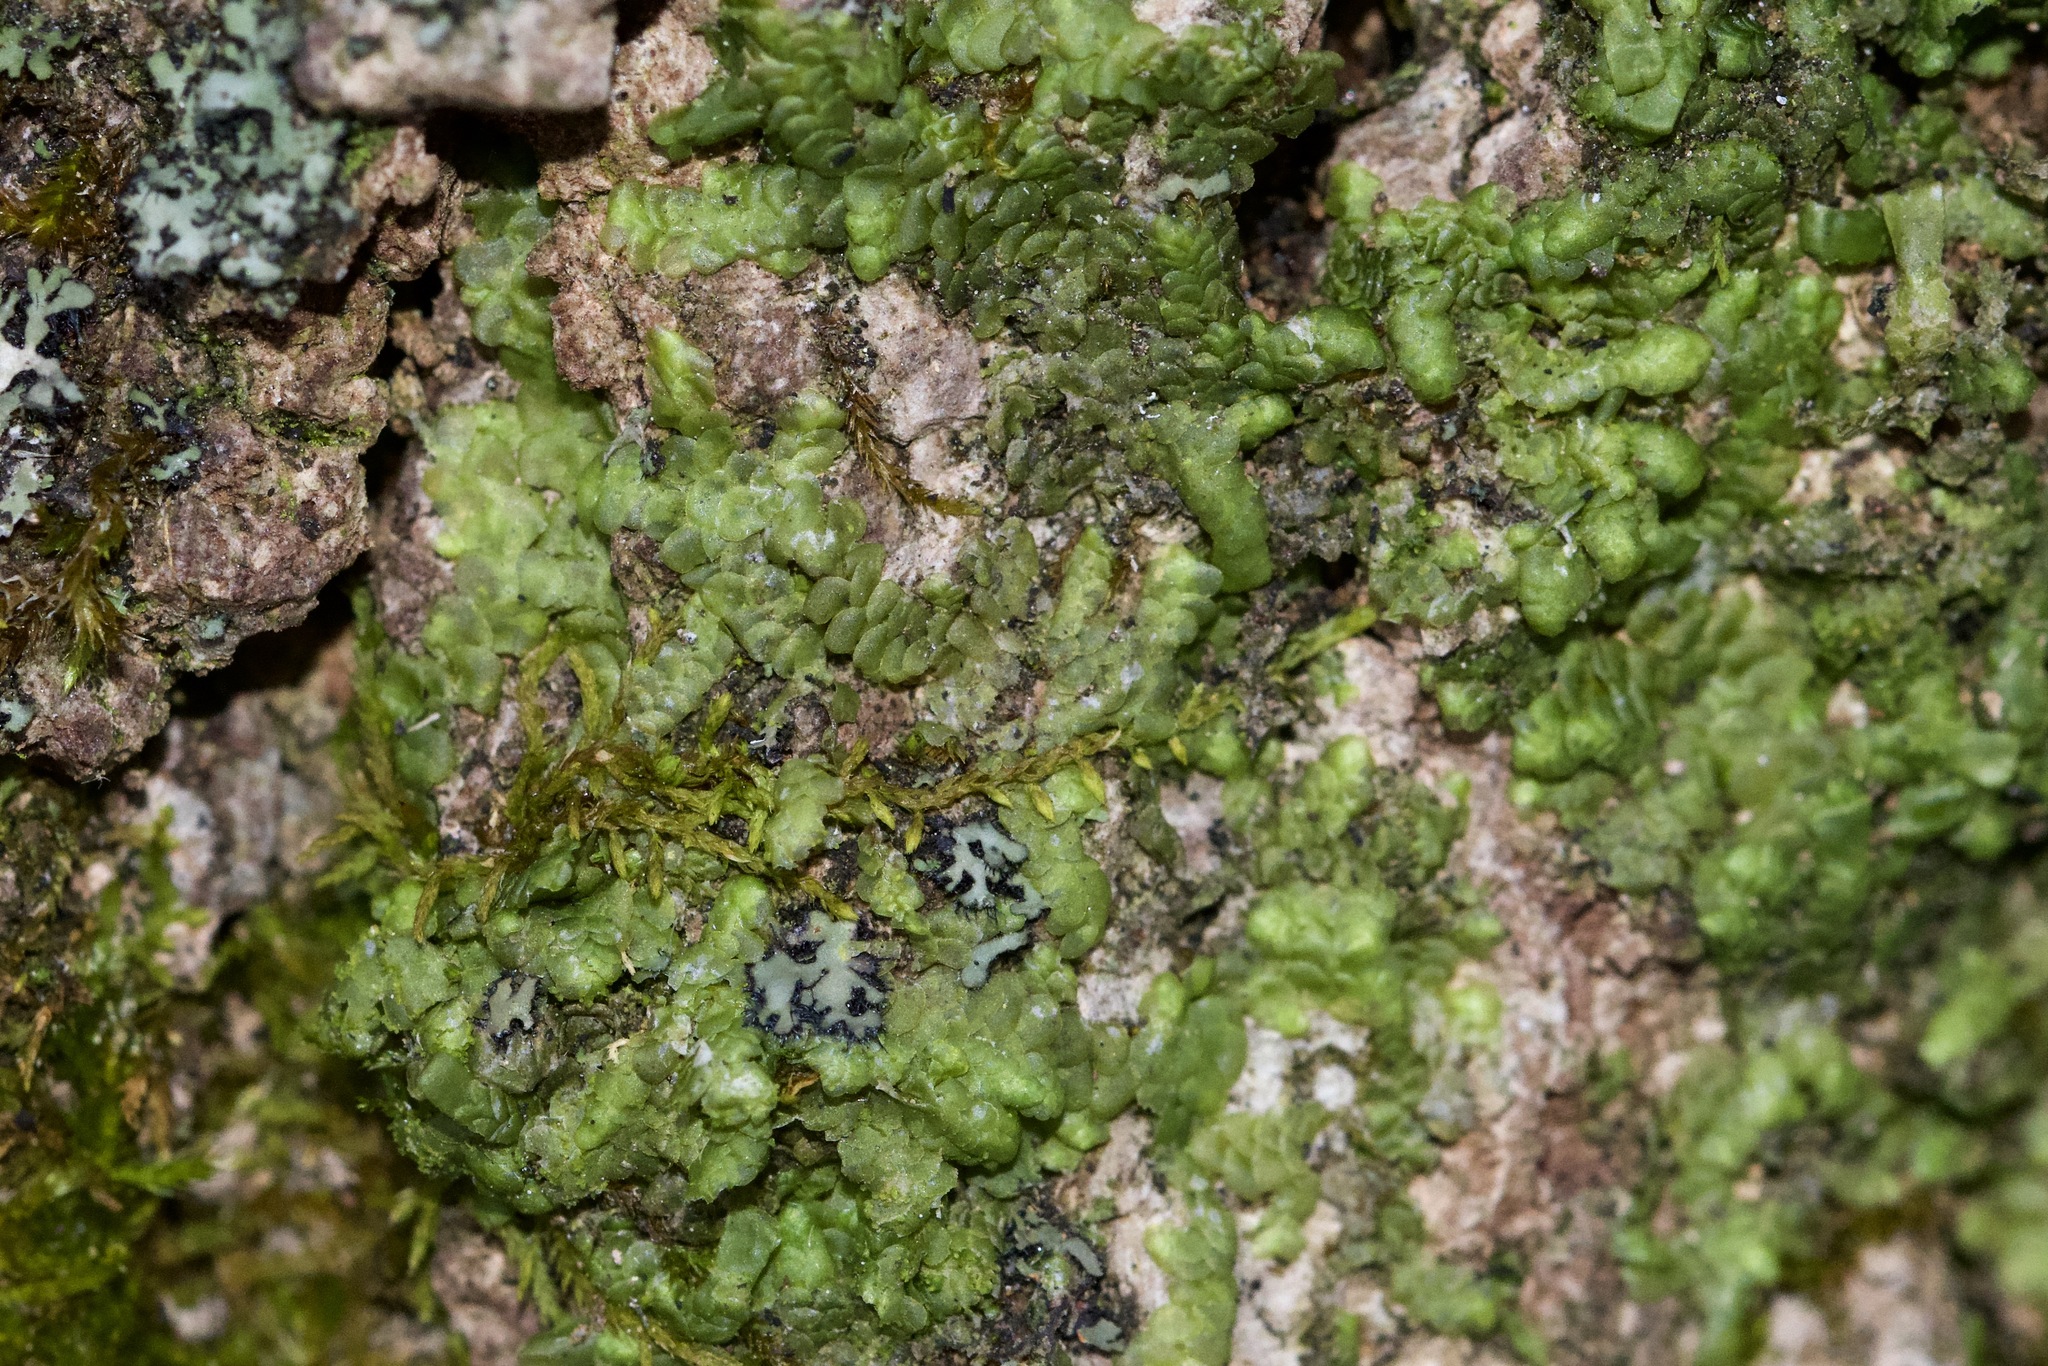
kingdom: Plantae
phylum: Marchantiophyta
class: Jungermanniopsida
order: Porellales
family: Radulaceae
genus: Radula
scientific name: Radula complanata
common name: Flat-leaved scalewort
